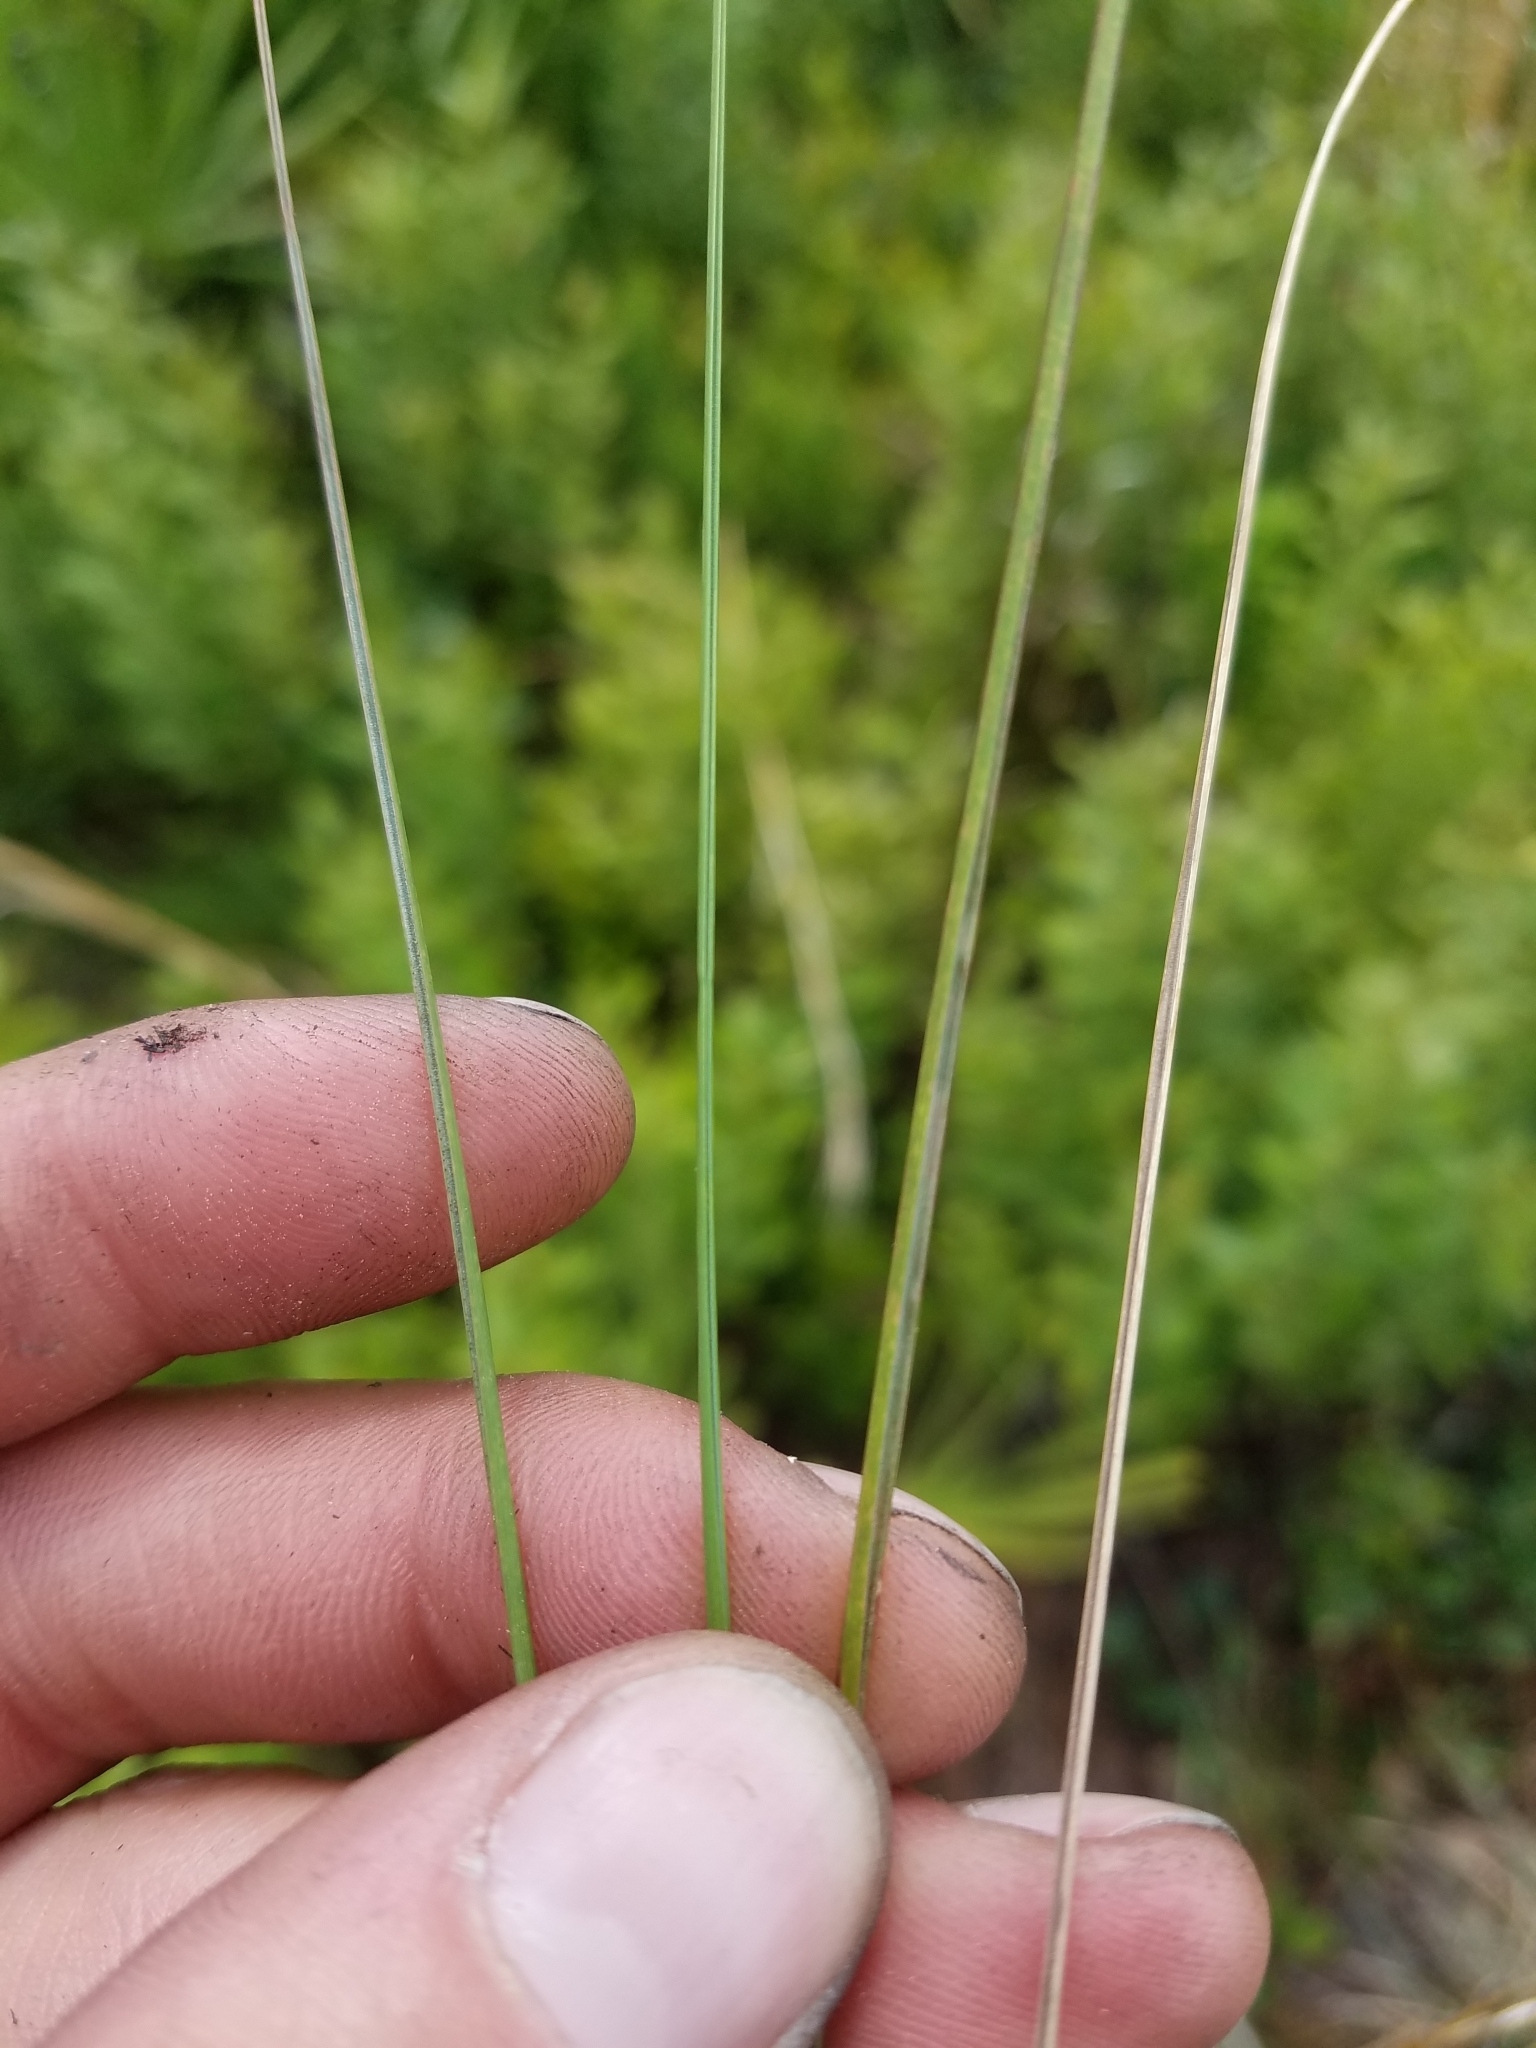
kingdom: Plantae
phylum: Tracheophyta
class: Liliopsida
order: Poales
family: Poaceae
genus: Sporobolus
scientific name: Sporobolus curtissii
